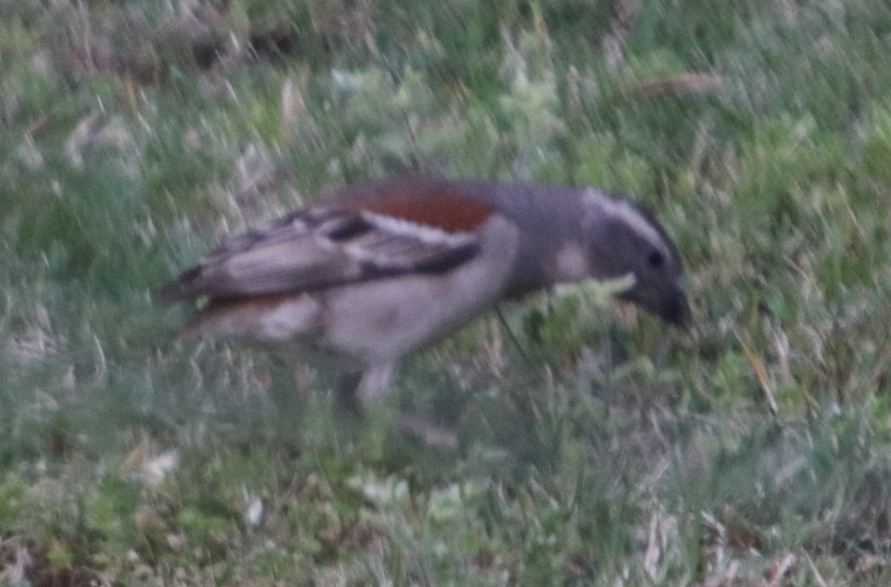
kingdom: Animalia
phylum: Chordata
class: Aves
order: Passeriformes
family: Passeridae
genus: Passer
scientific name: Passer melanurus
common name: Cape sparrow
